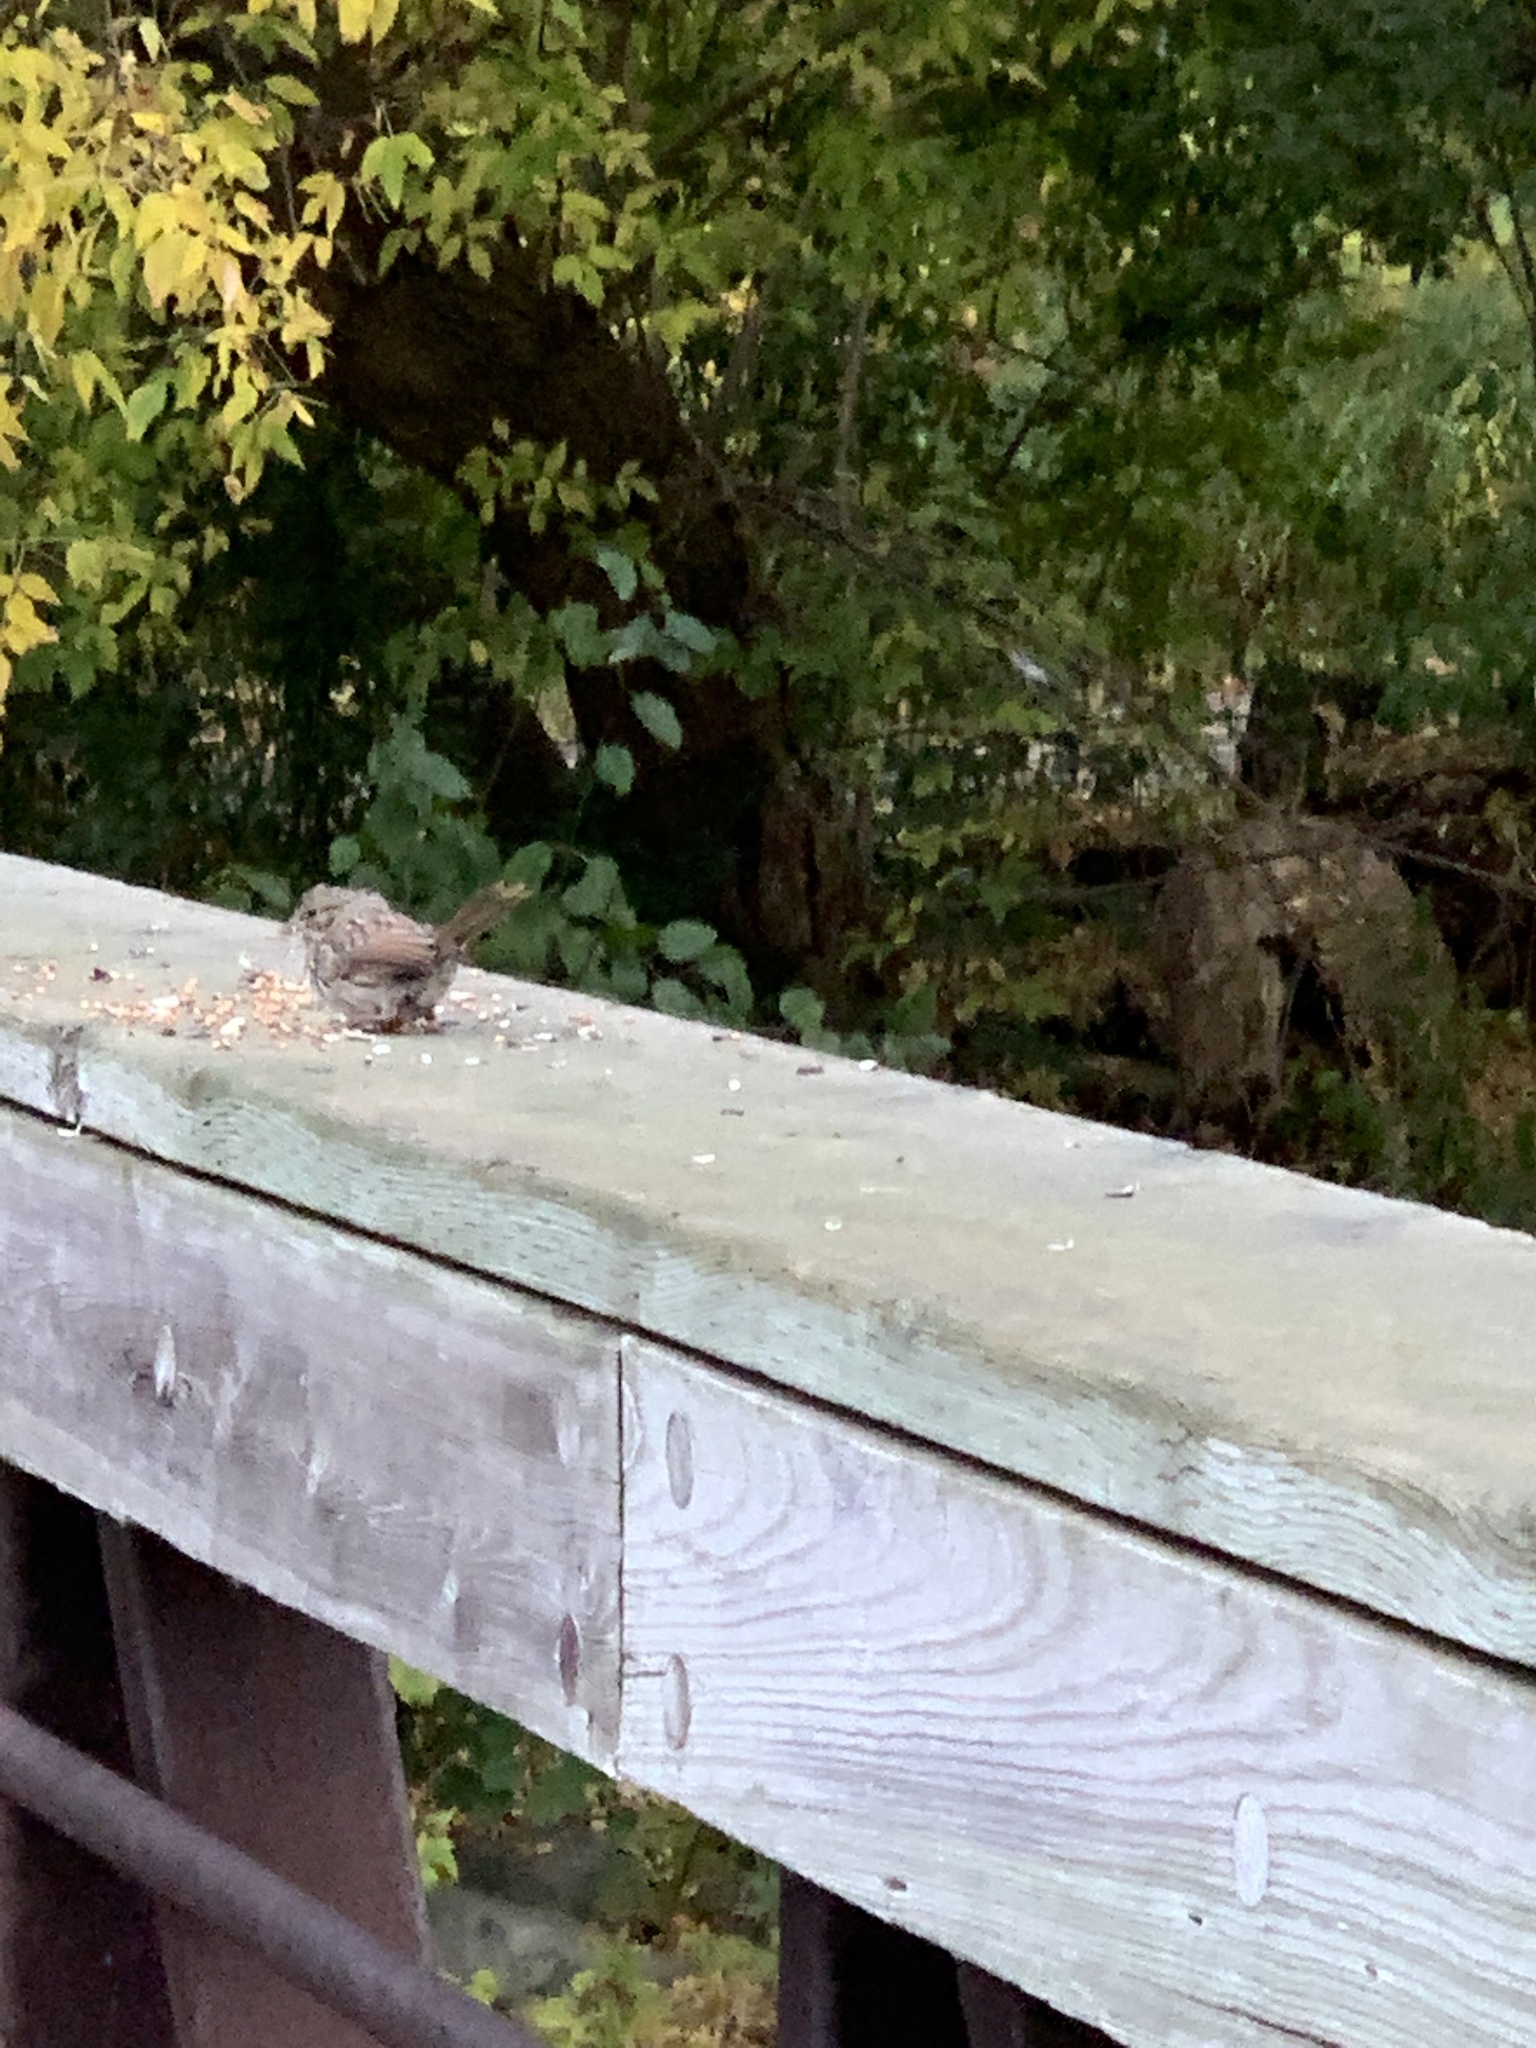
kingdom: Animalia
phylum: Chordata
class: Aves
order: Passeriformes
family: Passerellidae
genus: Melospiza
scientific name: Melospiza melodia
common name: Song sparrow
